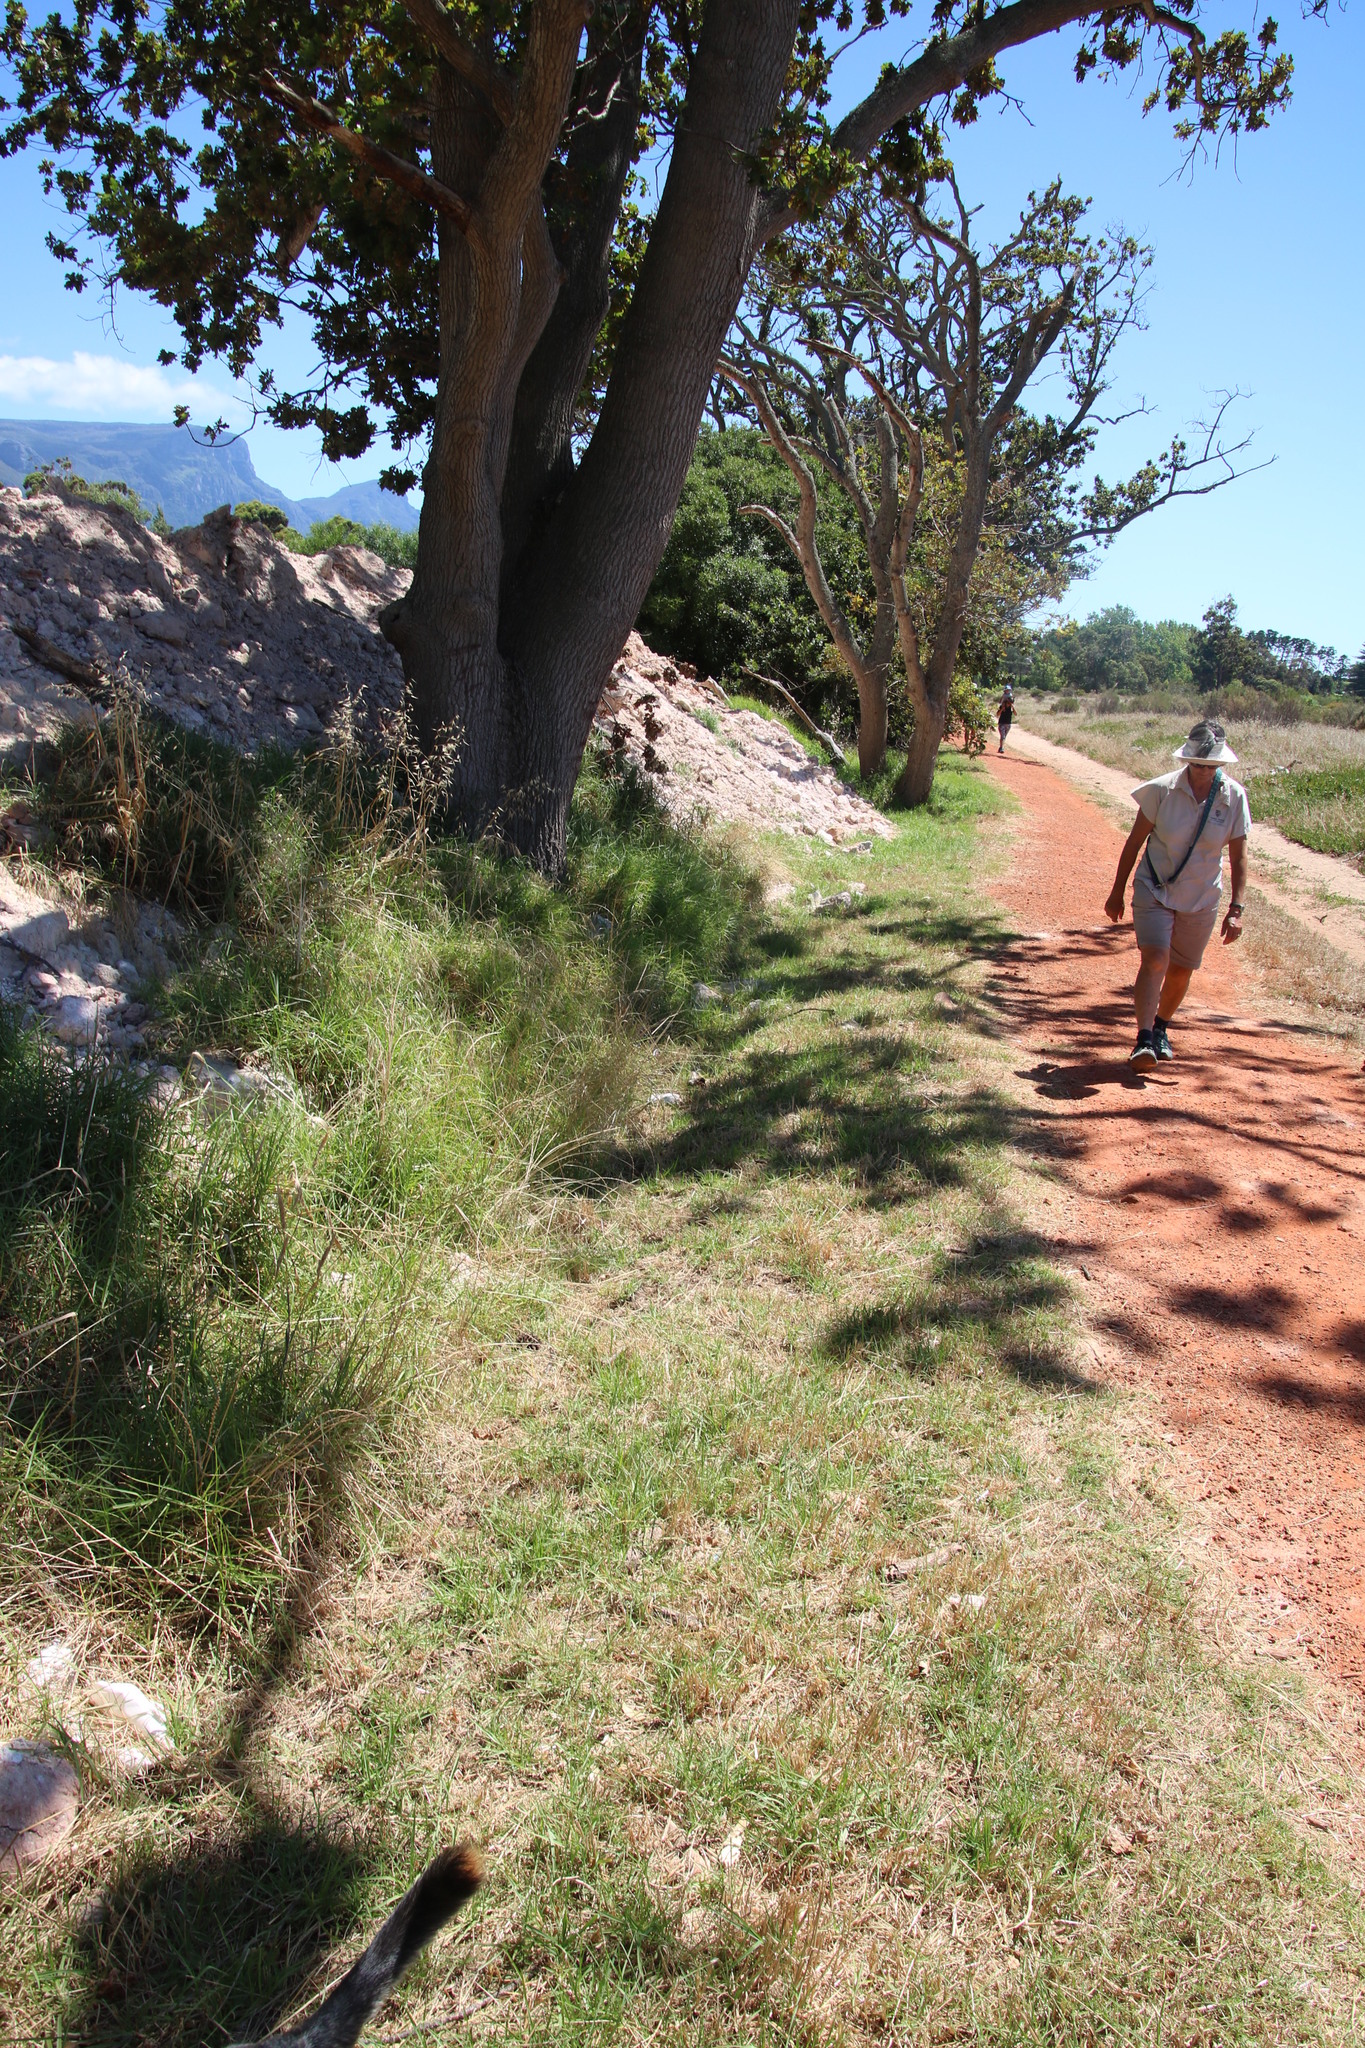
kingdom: Plantae
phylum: Tracheophyta
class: Liliopsida
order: Poales
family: Poaceae
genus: Cenchrus
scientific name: Cenchrus clandestinus
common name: Kikuyugrass
